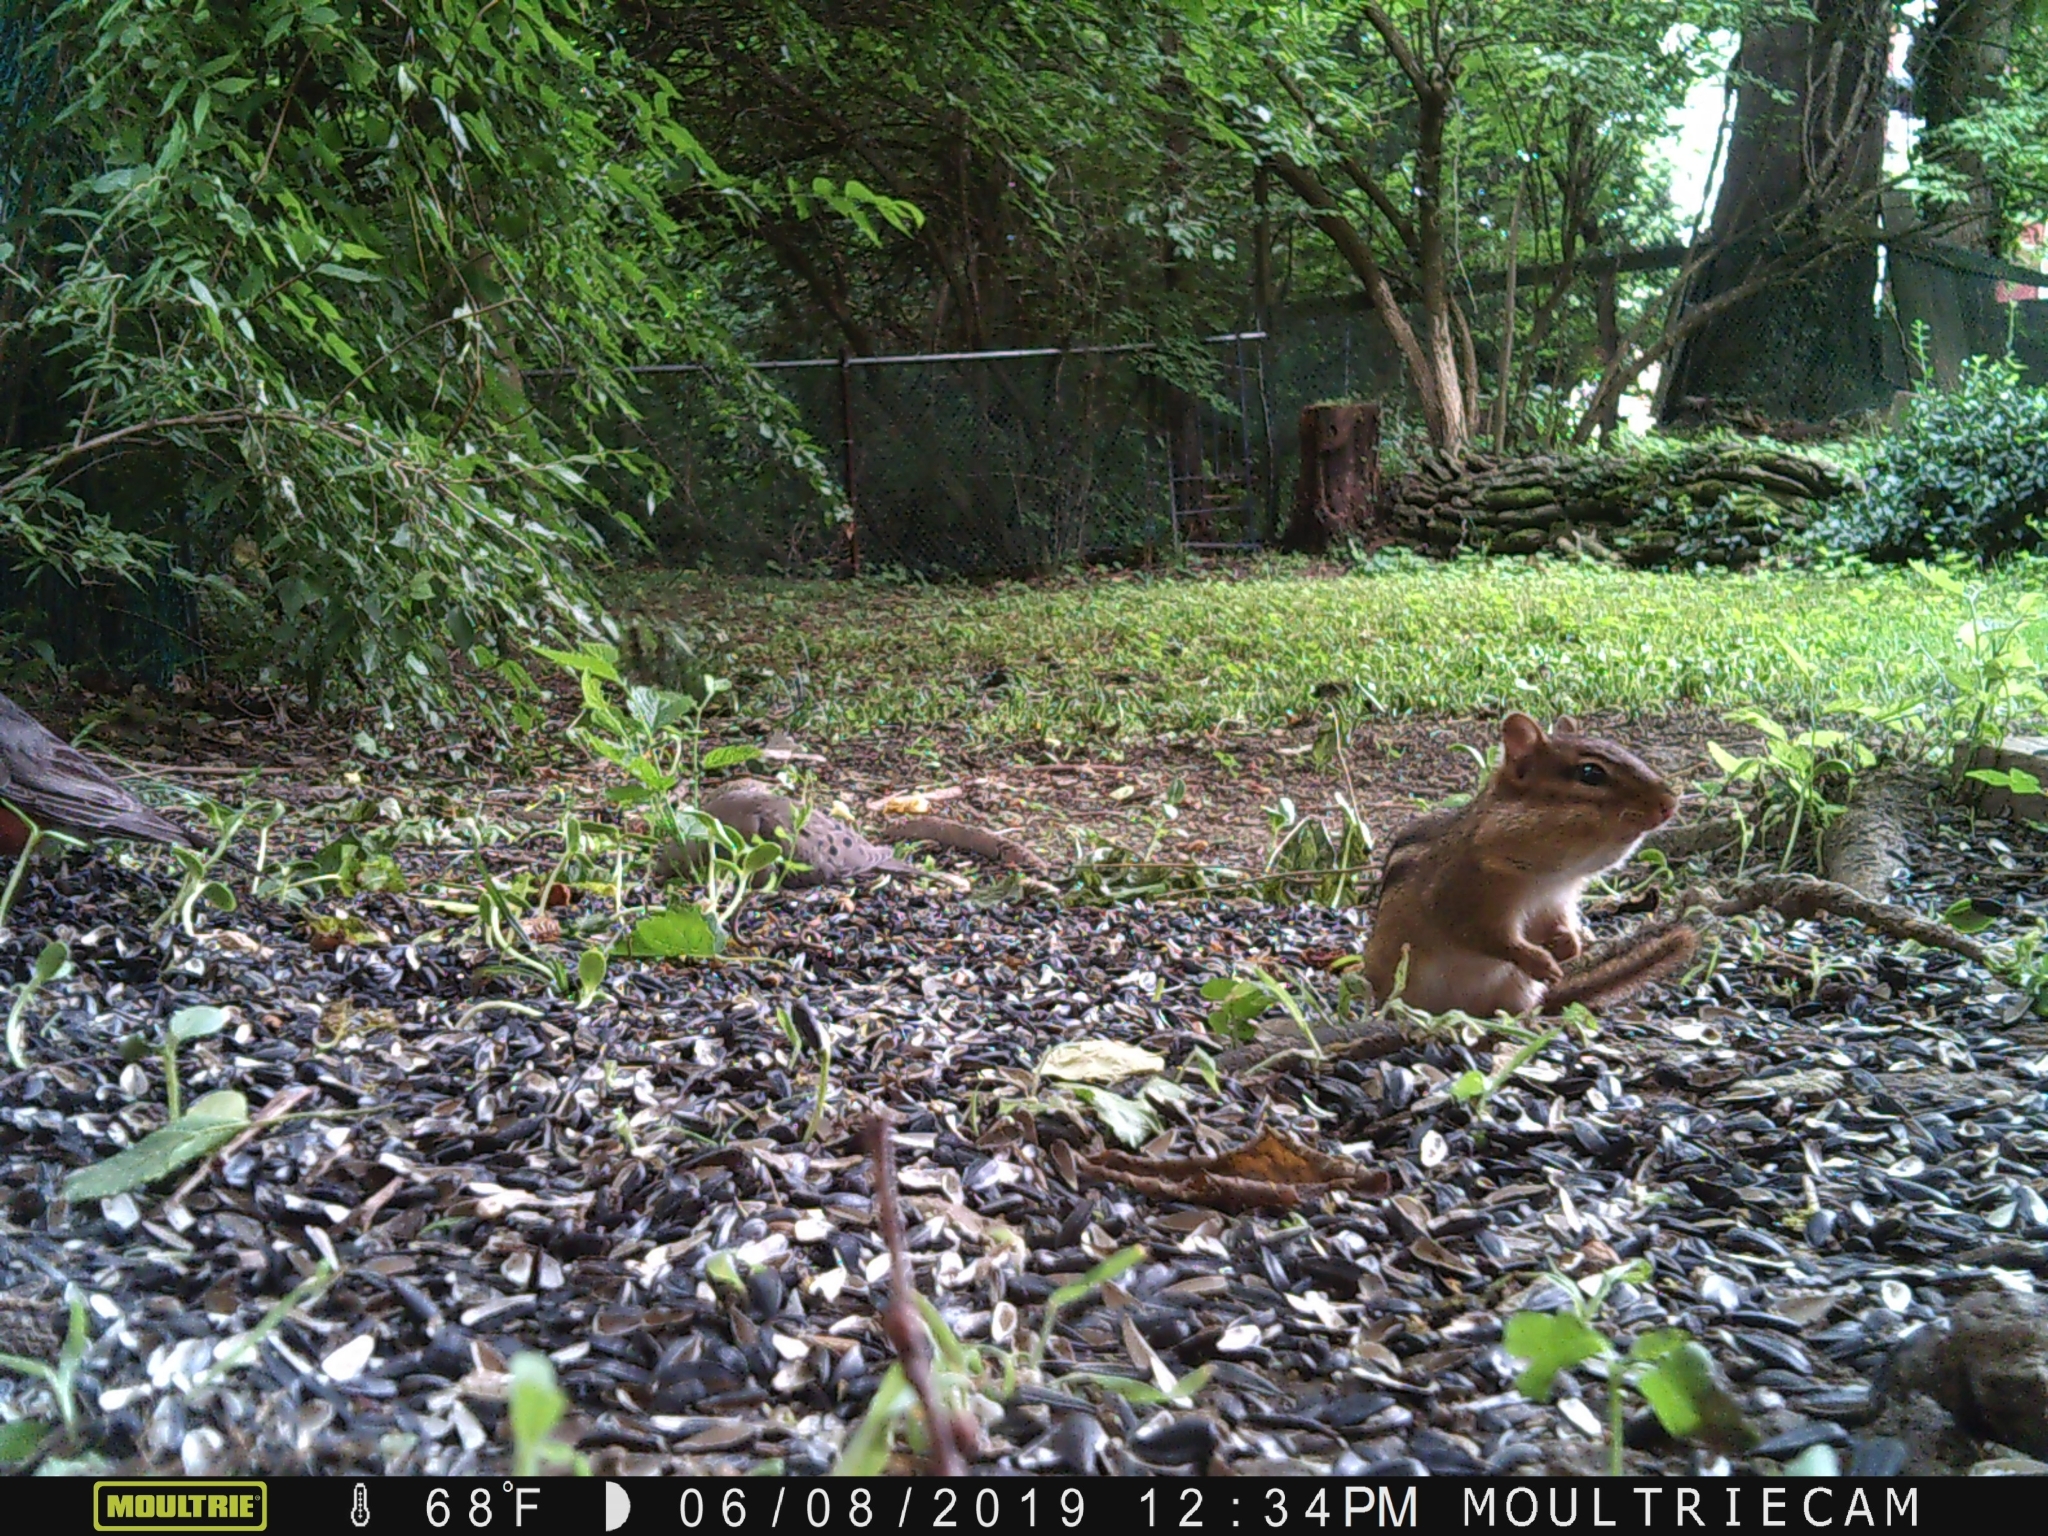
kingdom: Animalia
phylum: Chordata
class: Mammalia
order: Rodentia
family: Sciuridae
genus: Tamias
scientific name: Tamias striatus
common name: Eastern chipmunk
